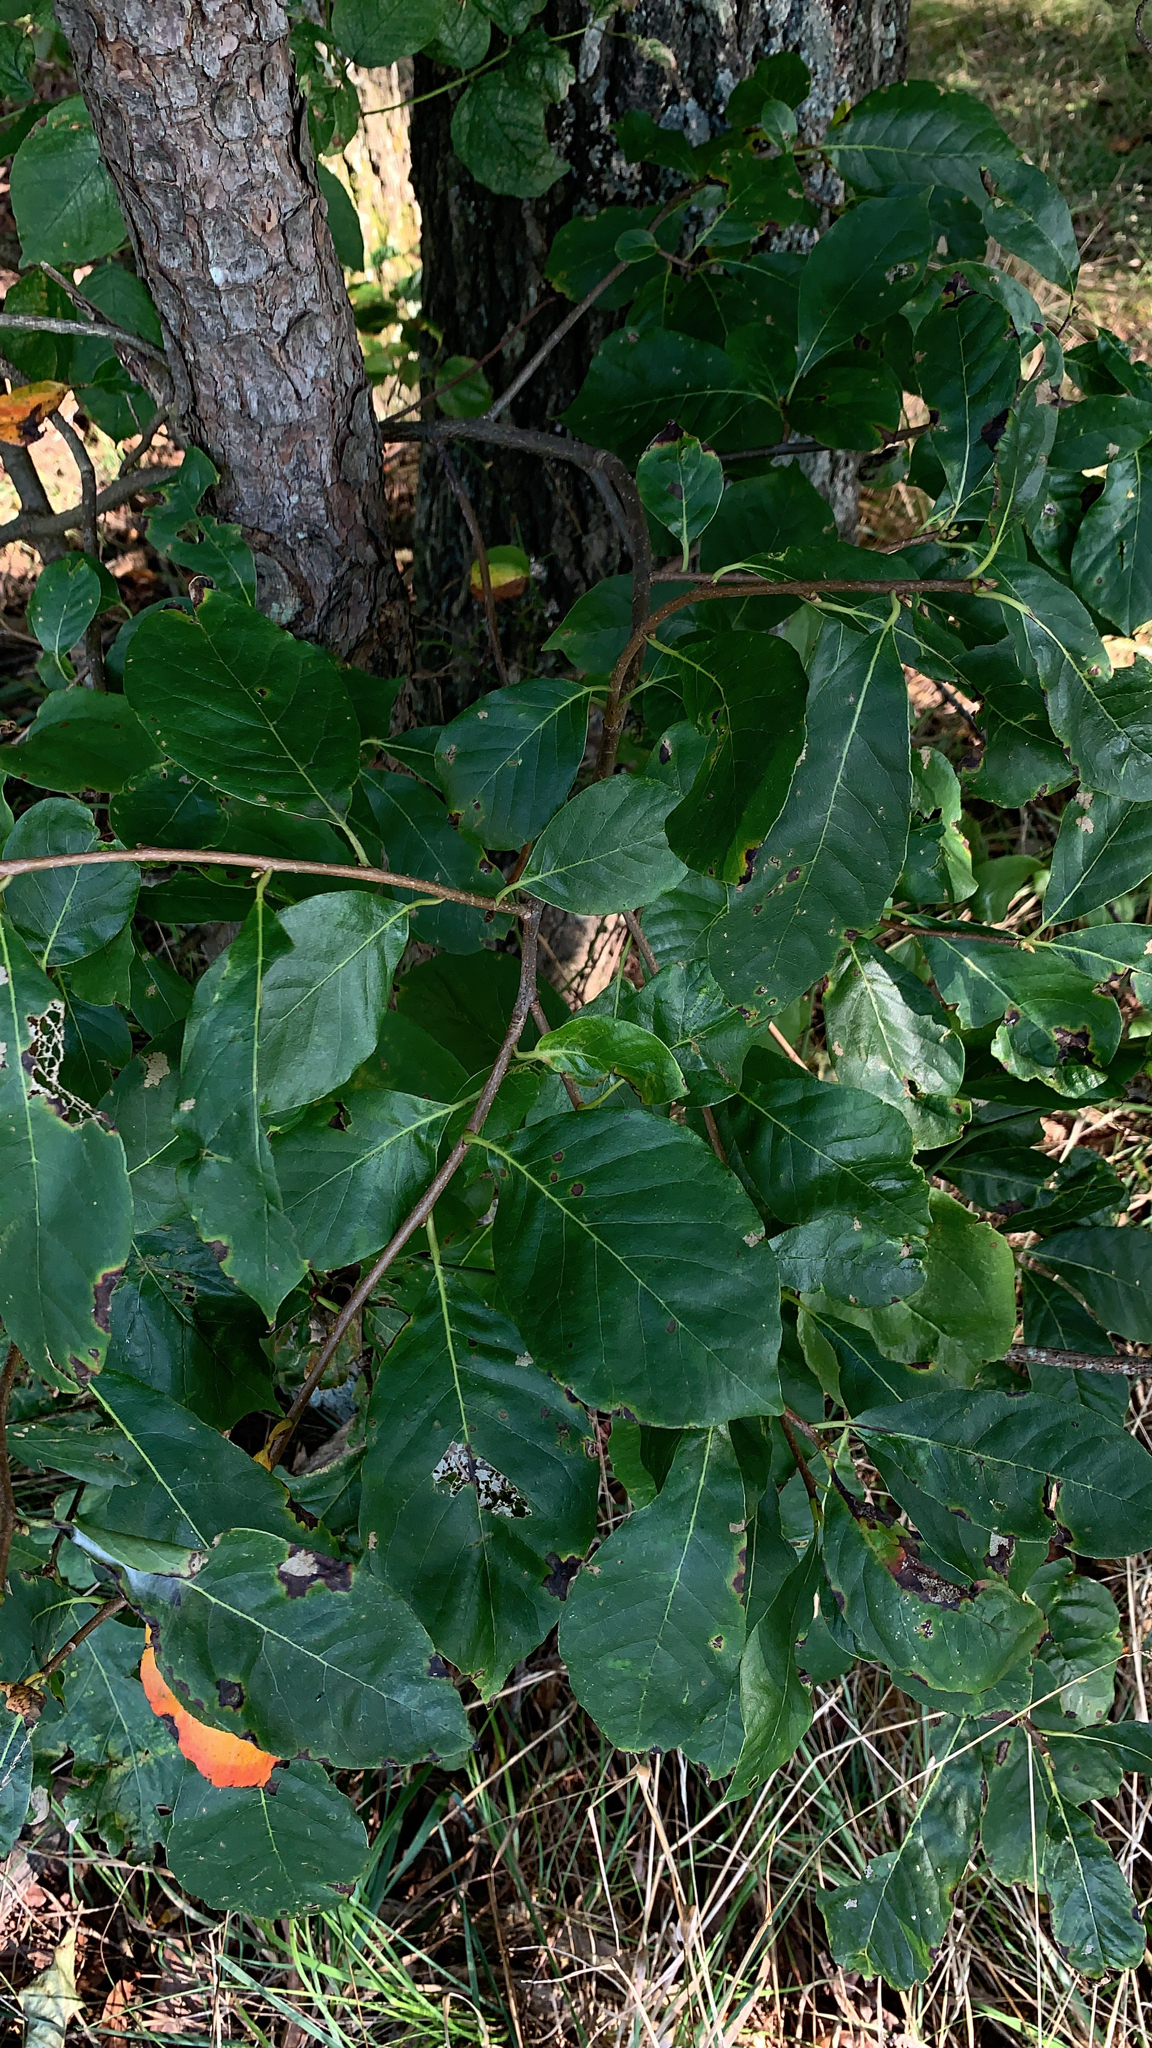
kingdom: Plantae
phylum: Tracheophyta
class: Magnoliopsida
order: Cornales
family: Nyssaceae
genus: Nyssa
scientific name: Nyssa sylvatica
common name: Black tupelo
